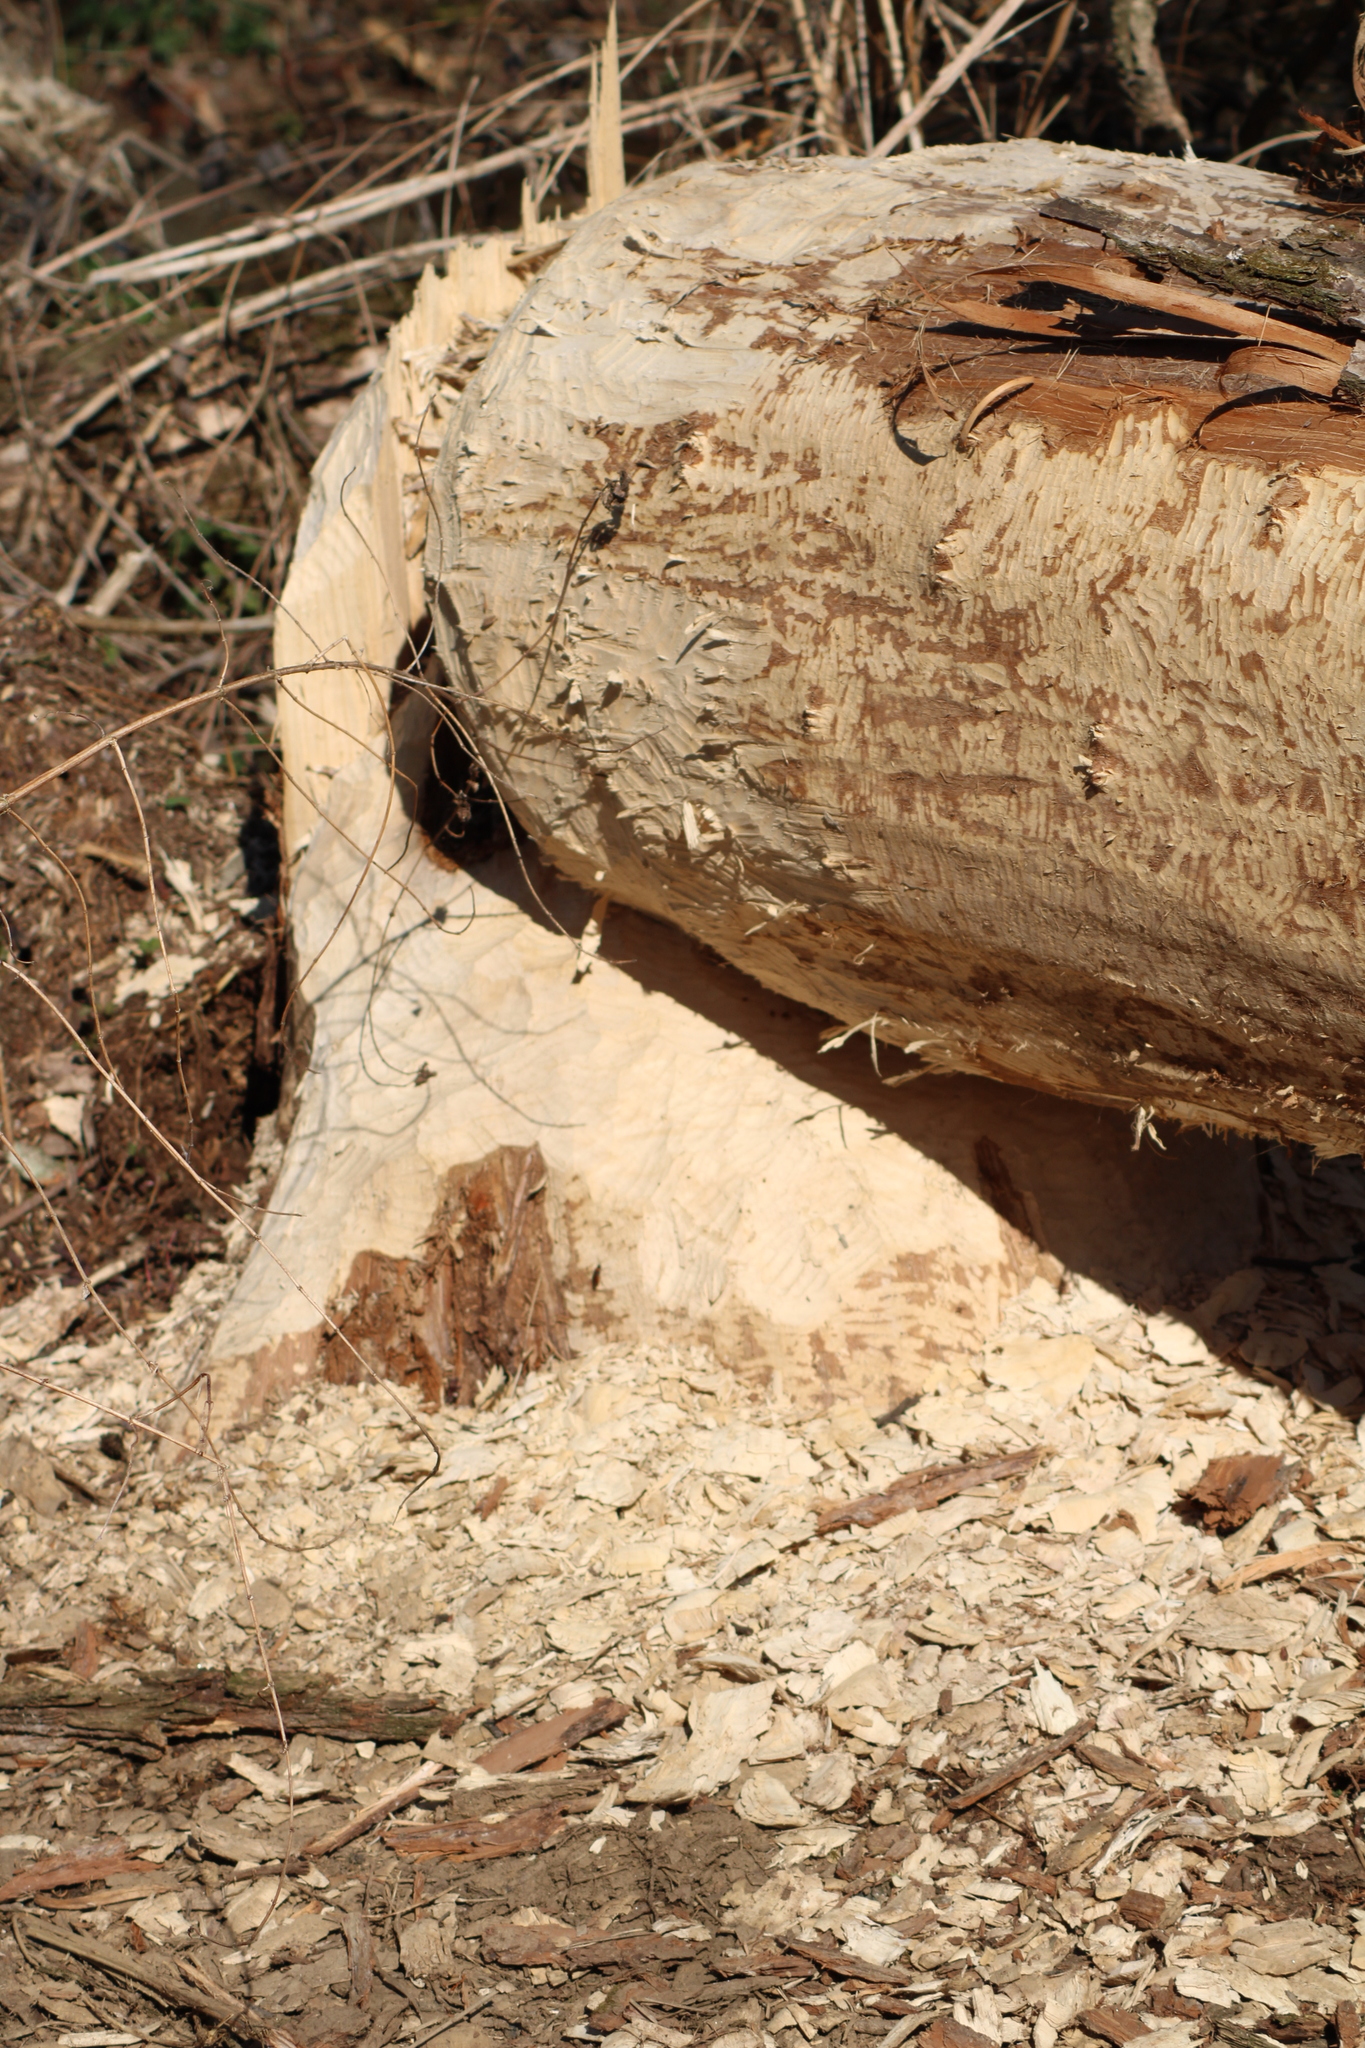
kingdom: Animalia
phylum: Chordata
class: Mammalia
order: Rodentia
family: Castoridae
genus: Castor
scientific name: Castor fiber
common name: Eurasian beaver
